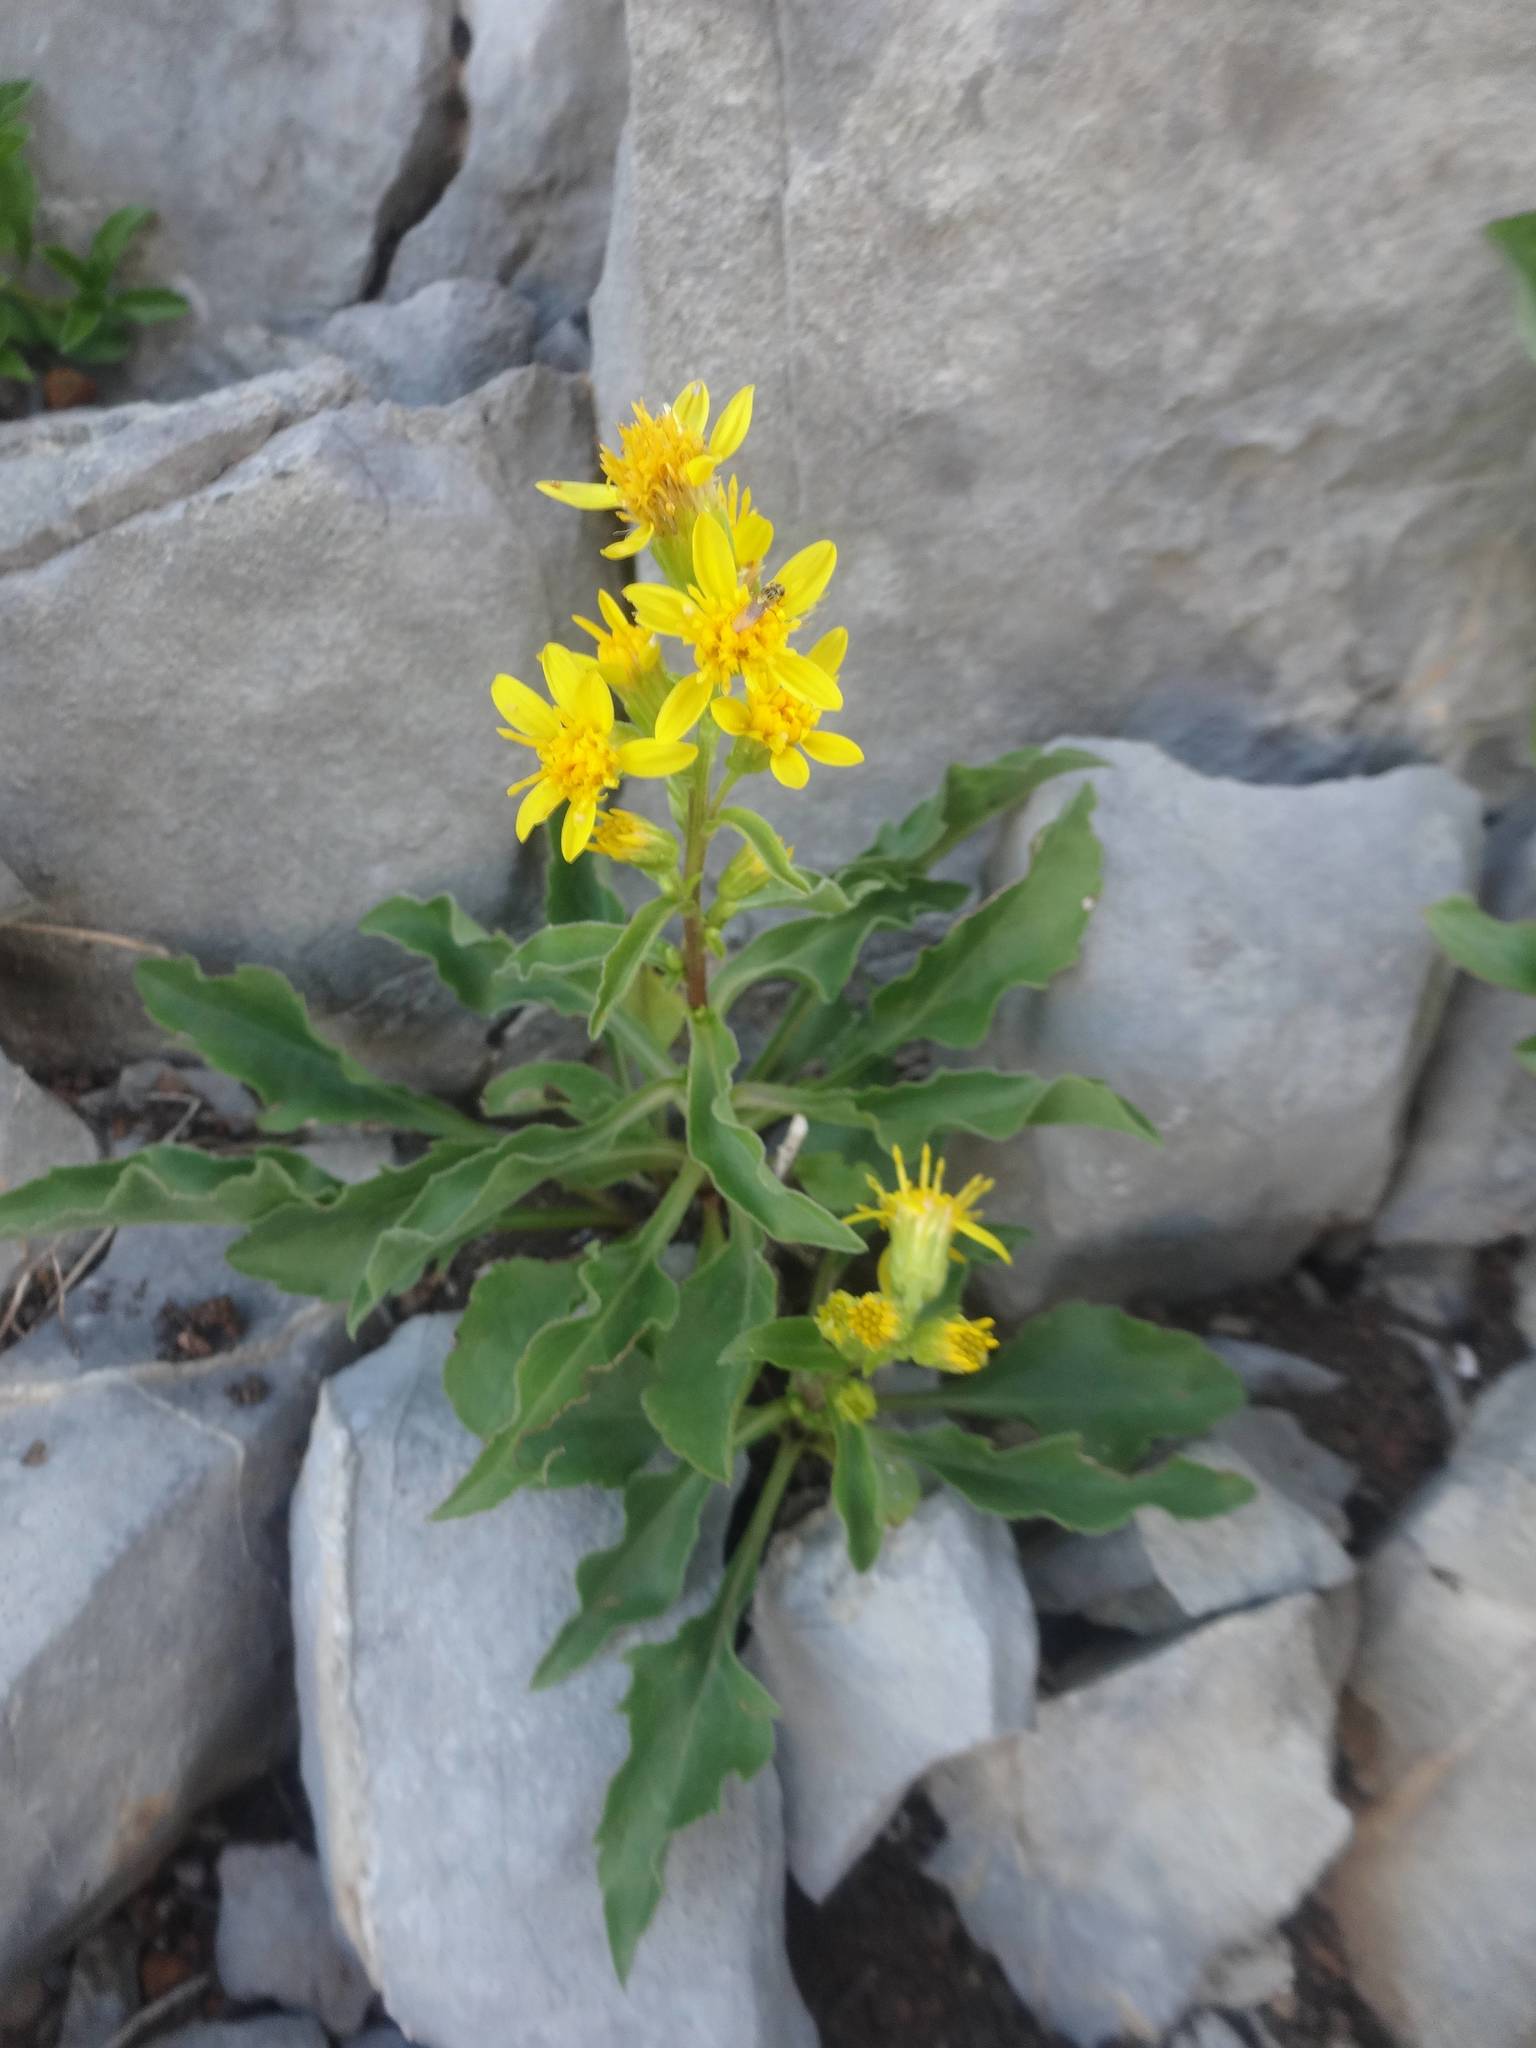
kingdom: Plantae
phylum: Tracheophyta
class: Magnoliopsida
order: Asterales
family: Asteraceae
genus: Solidago
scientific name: Solidago virgaurea
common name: Goldenrod
